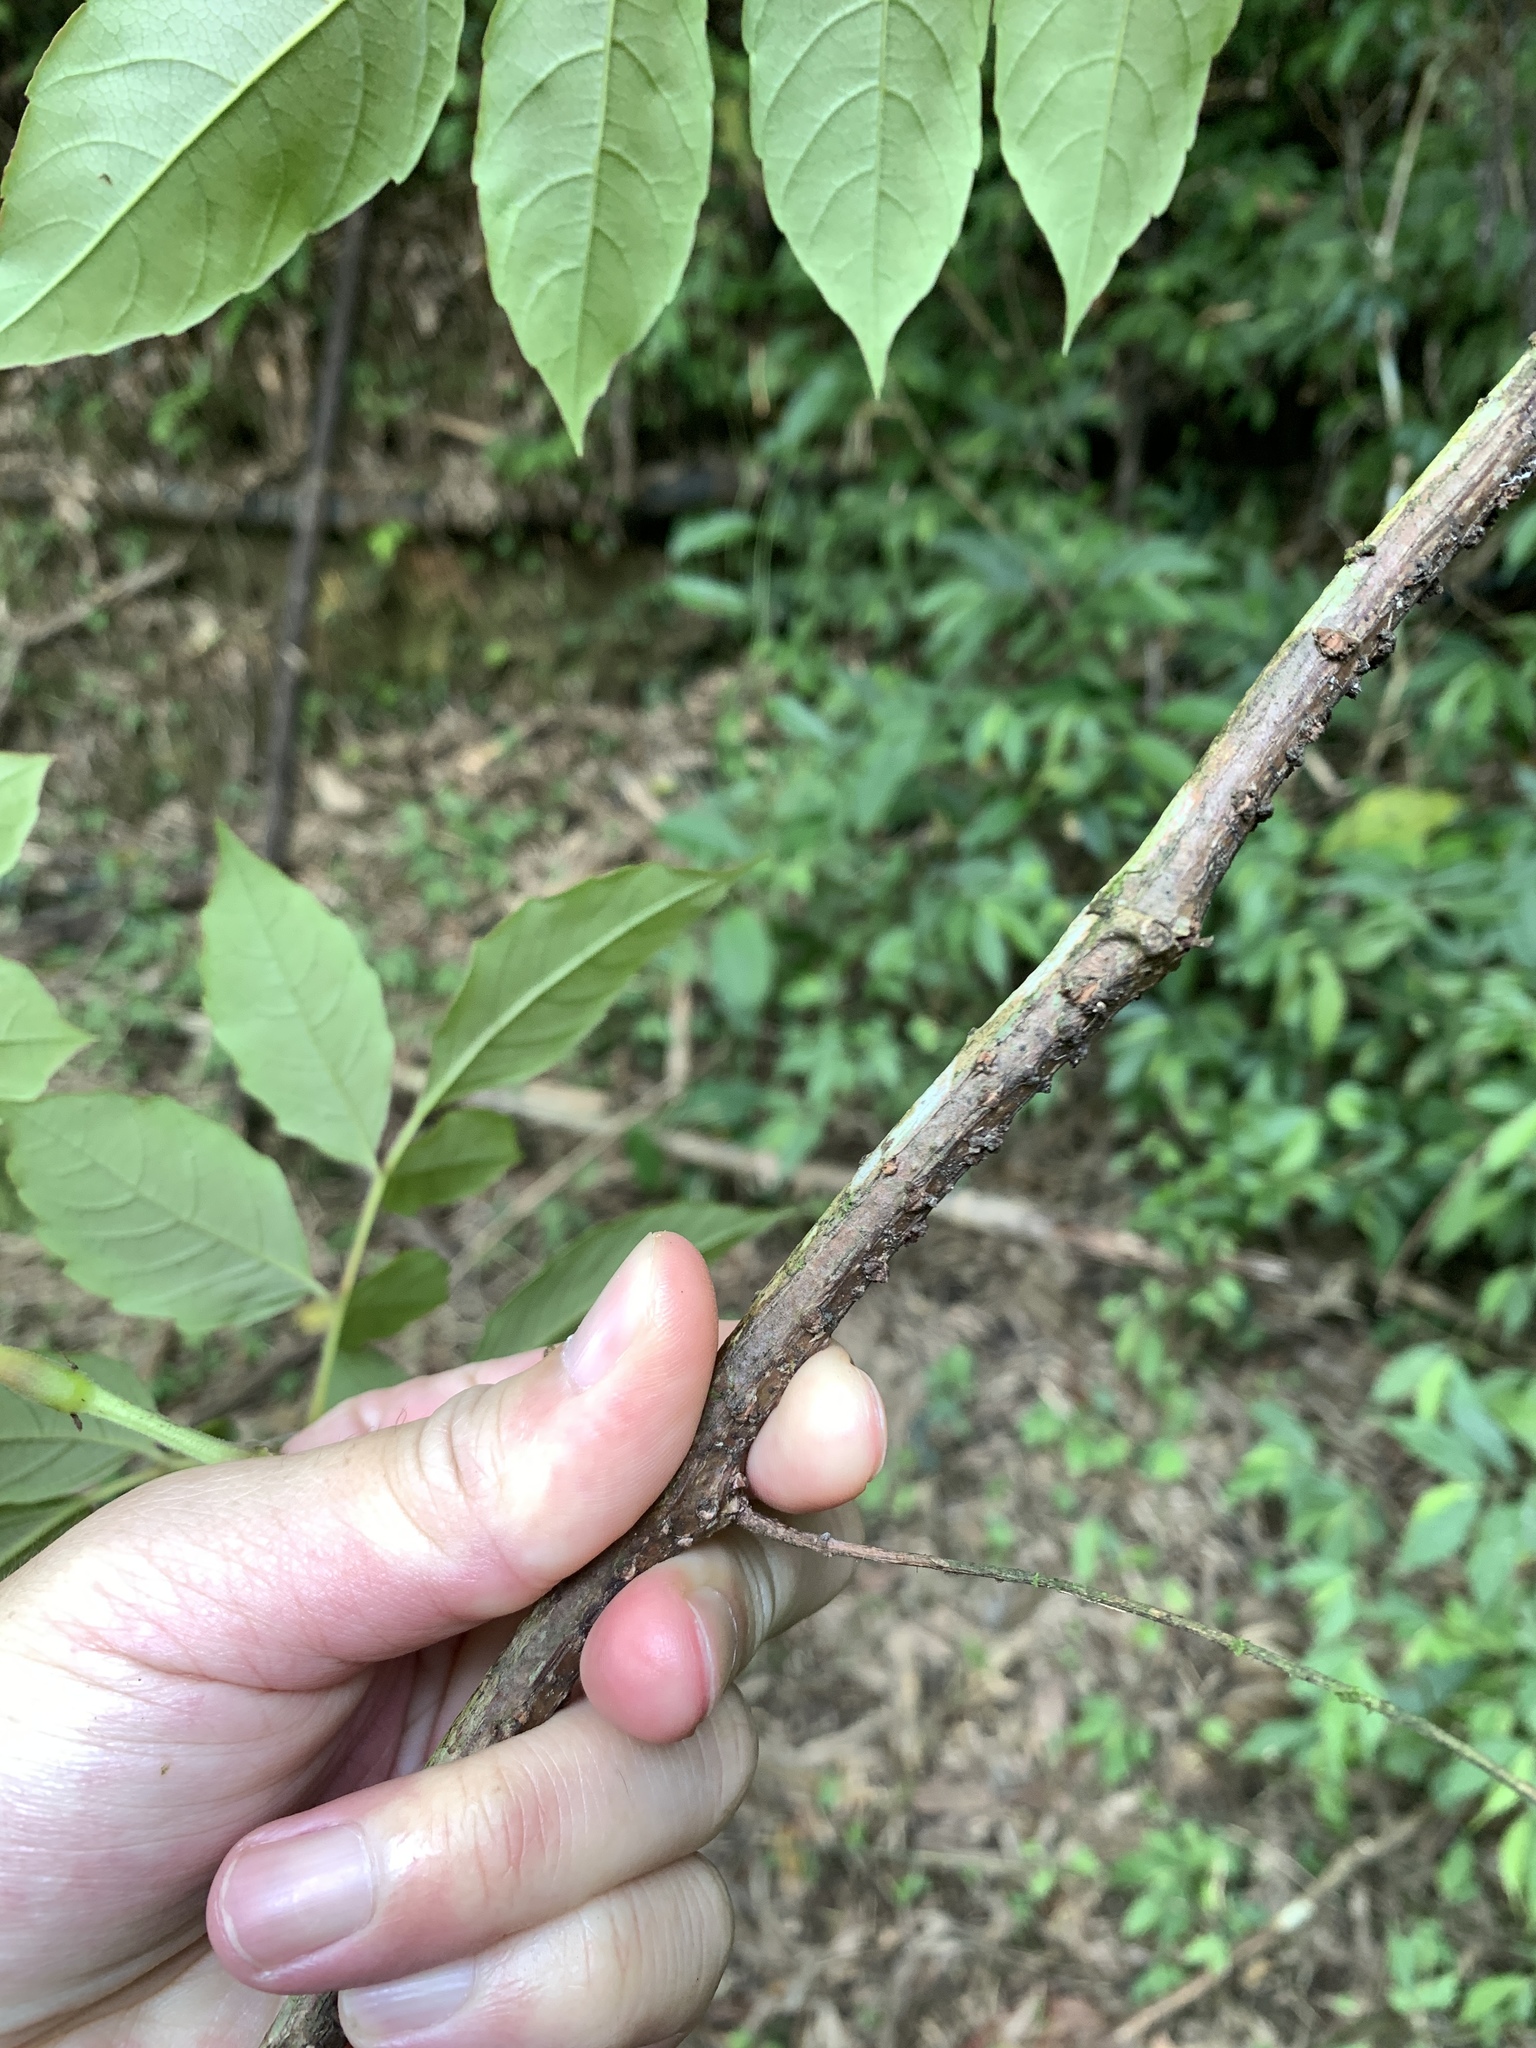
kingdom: Plantae
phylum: Tracheophyta
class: Magnoliopsida
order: Vitales
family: Vitaceae
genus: Nekemias
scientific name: Nekemias cantoniensis
